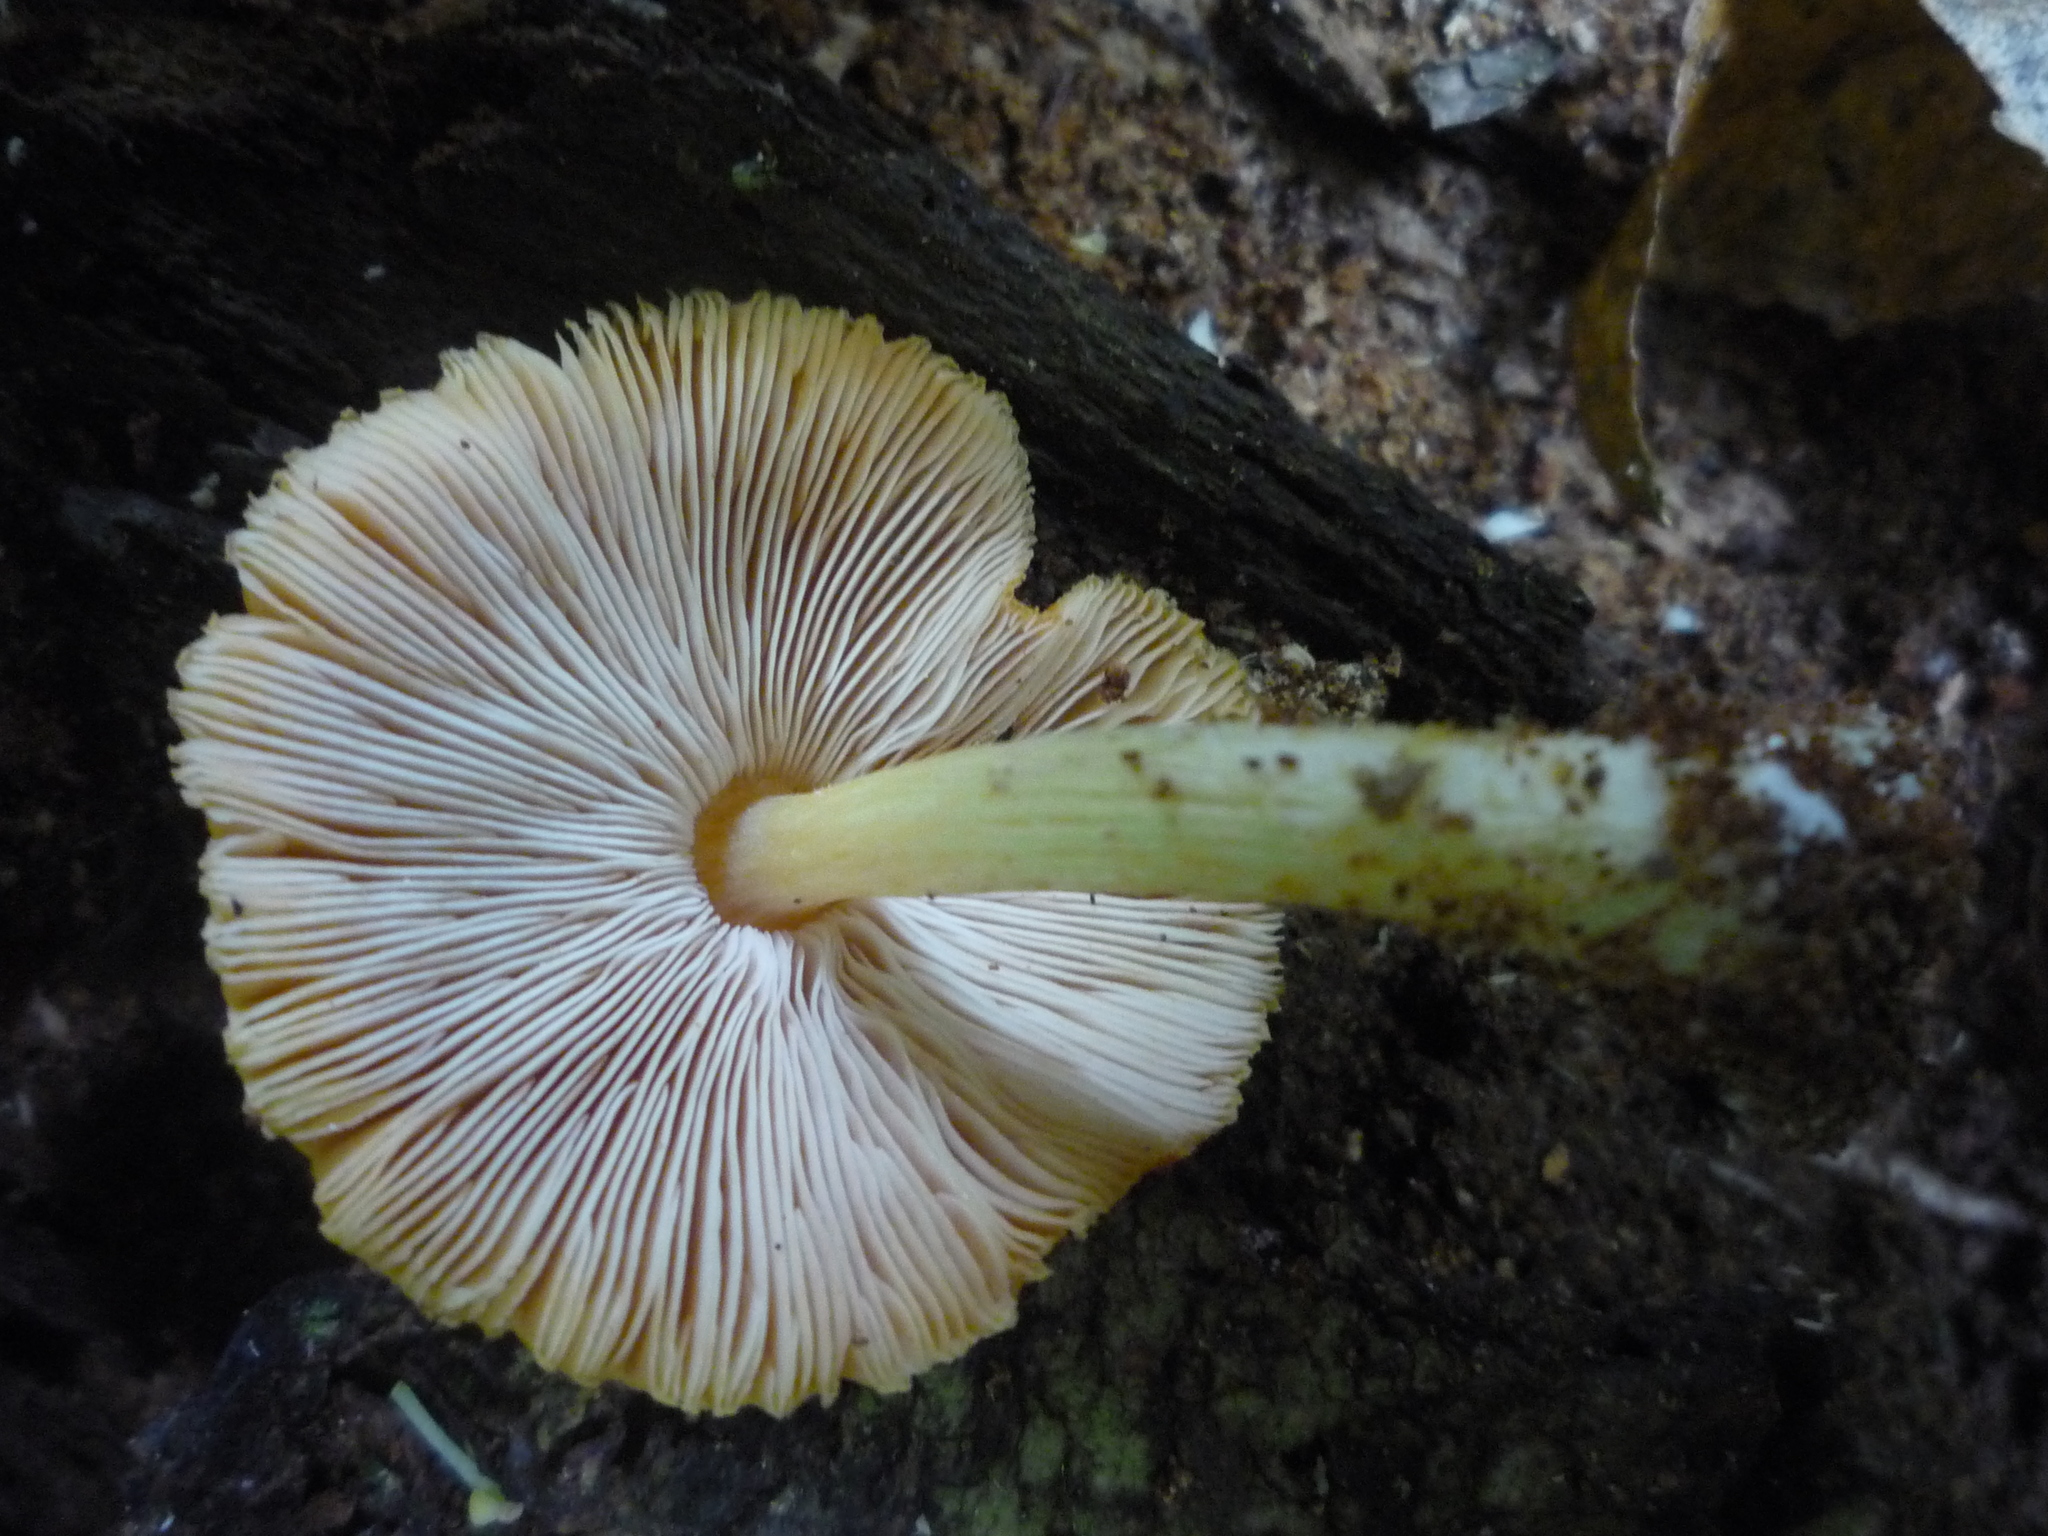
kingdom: Fungi
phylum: Basidiomycota
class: Agaricomycetes
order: Agaricales
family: Pluteaceae
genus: Pluteus
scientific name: Pluteus aurantiorugosus
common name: Flame shield
